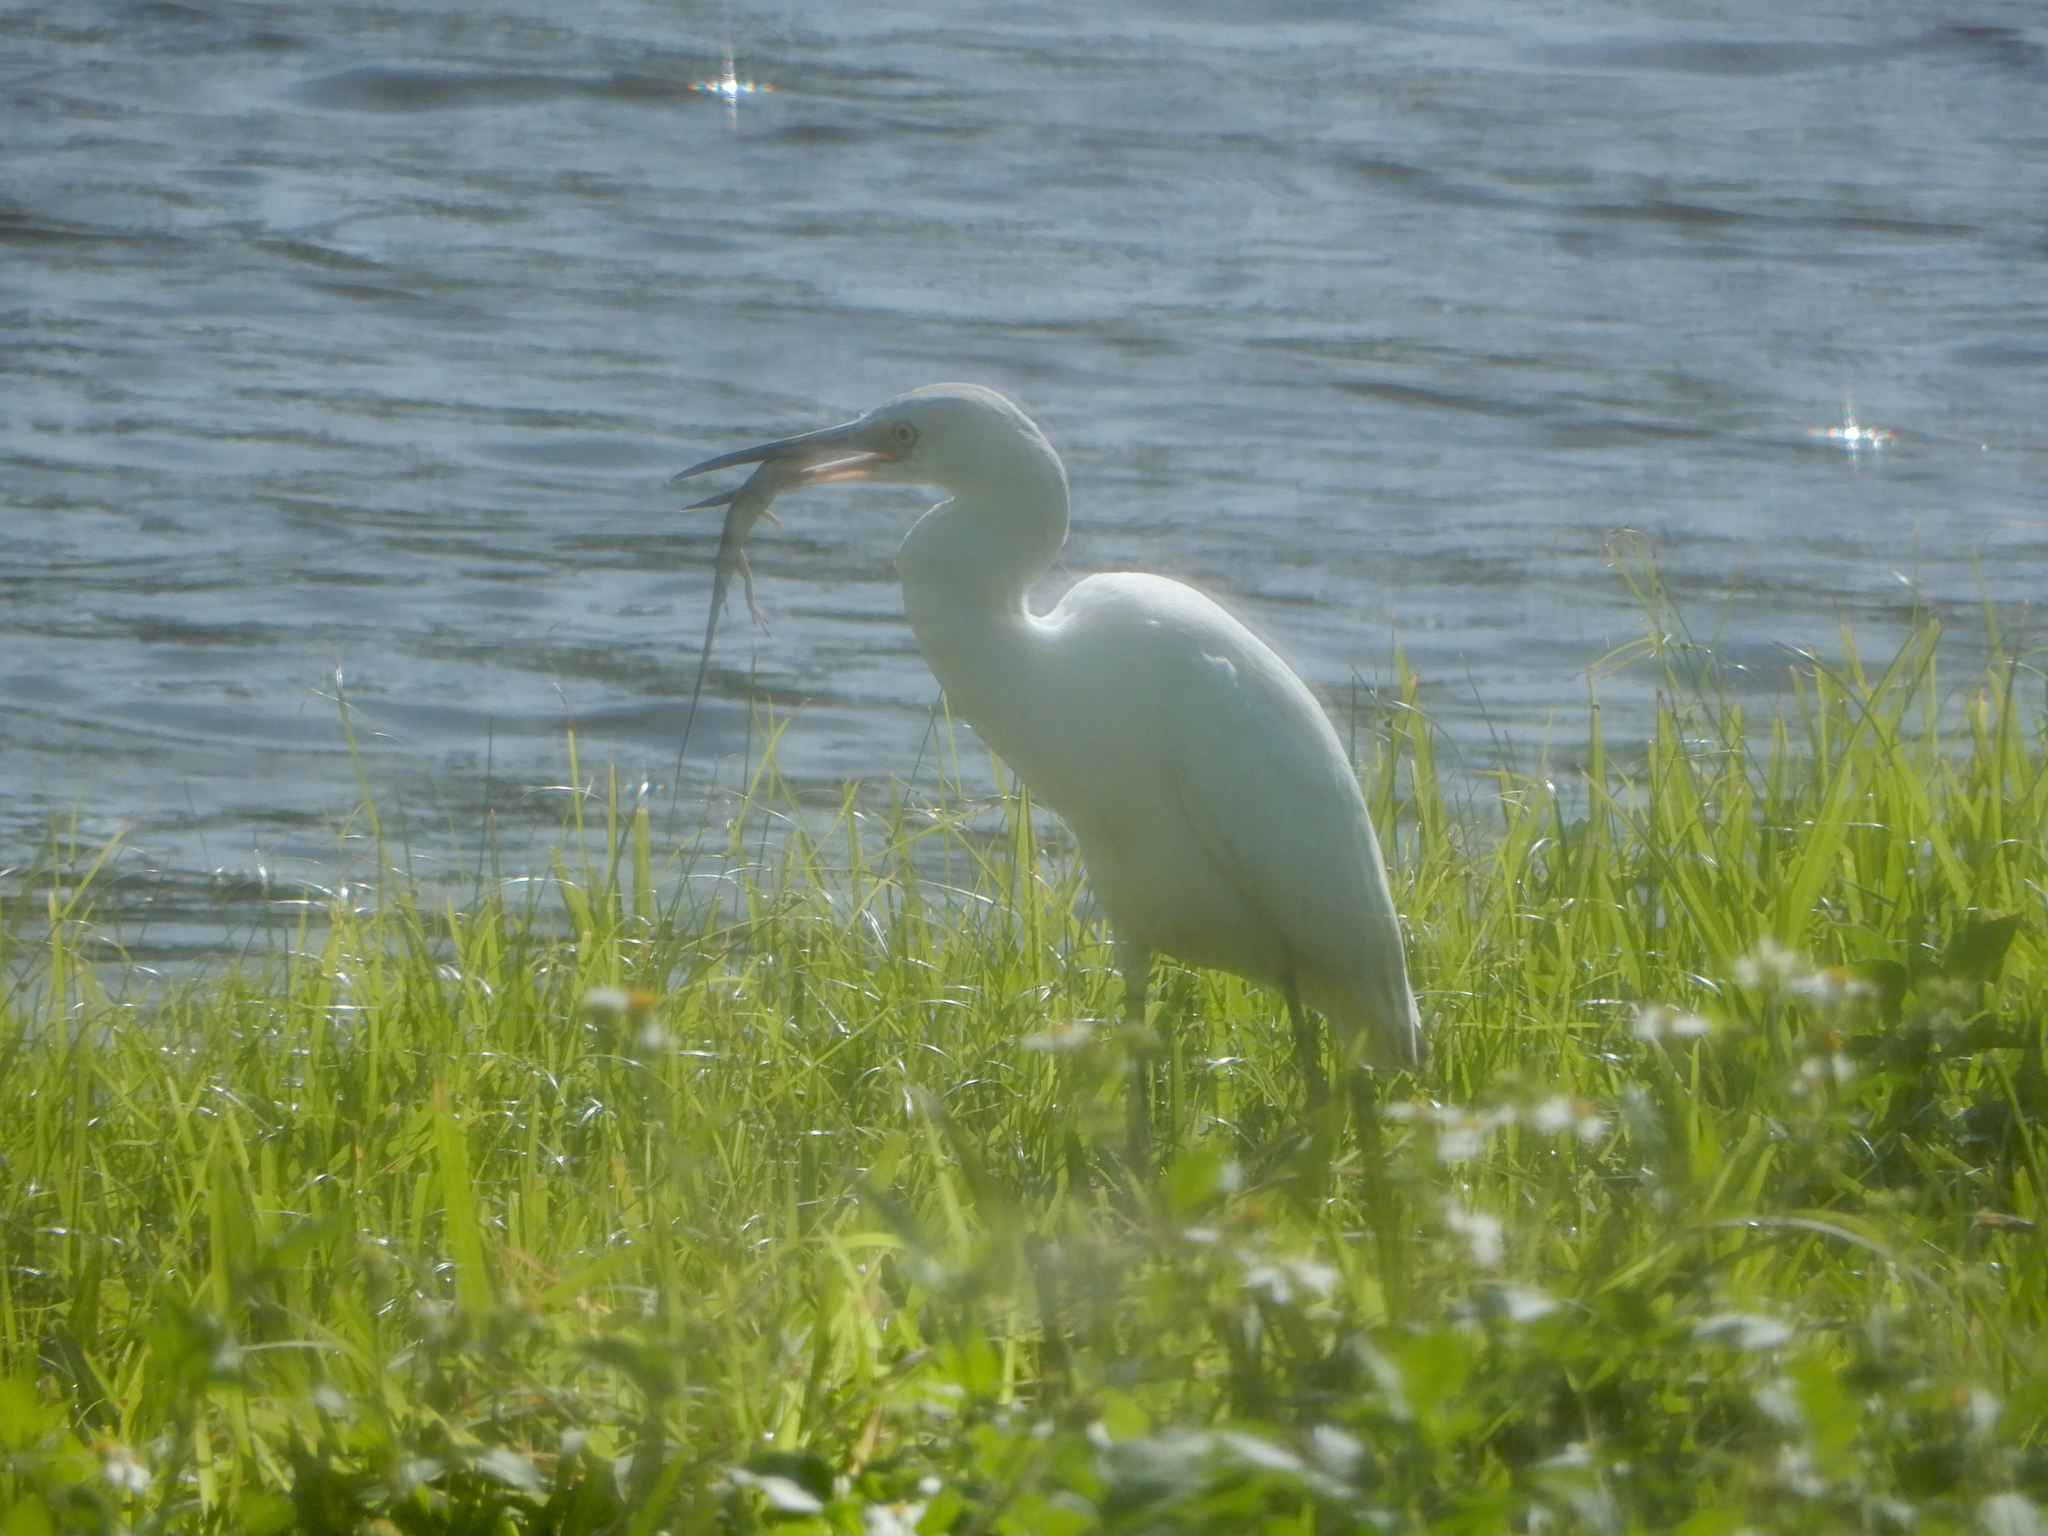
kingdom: Animalia
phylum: Chordata
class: Aves
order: Pelecaniformes
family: Ardeidae
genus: Egretta
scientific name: Egretta caerulea
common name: Little blue heron
